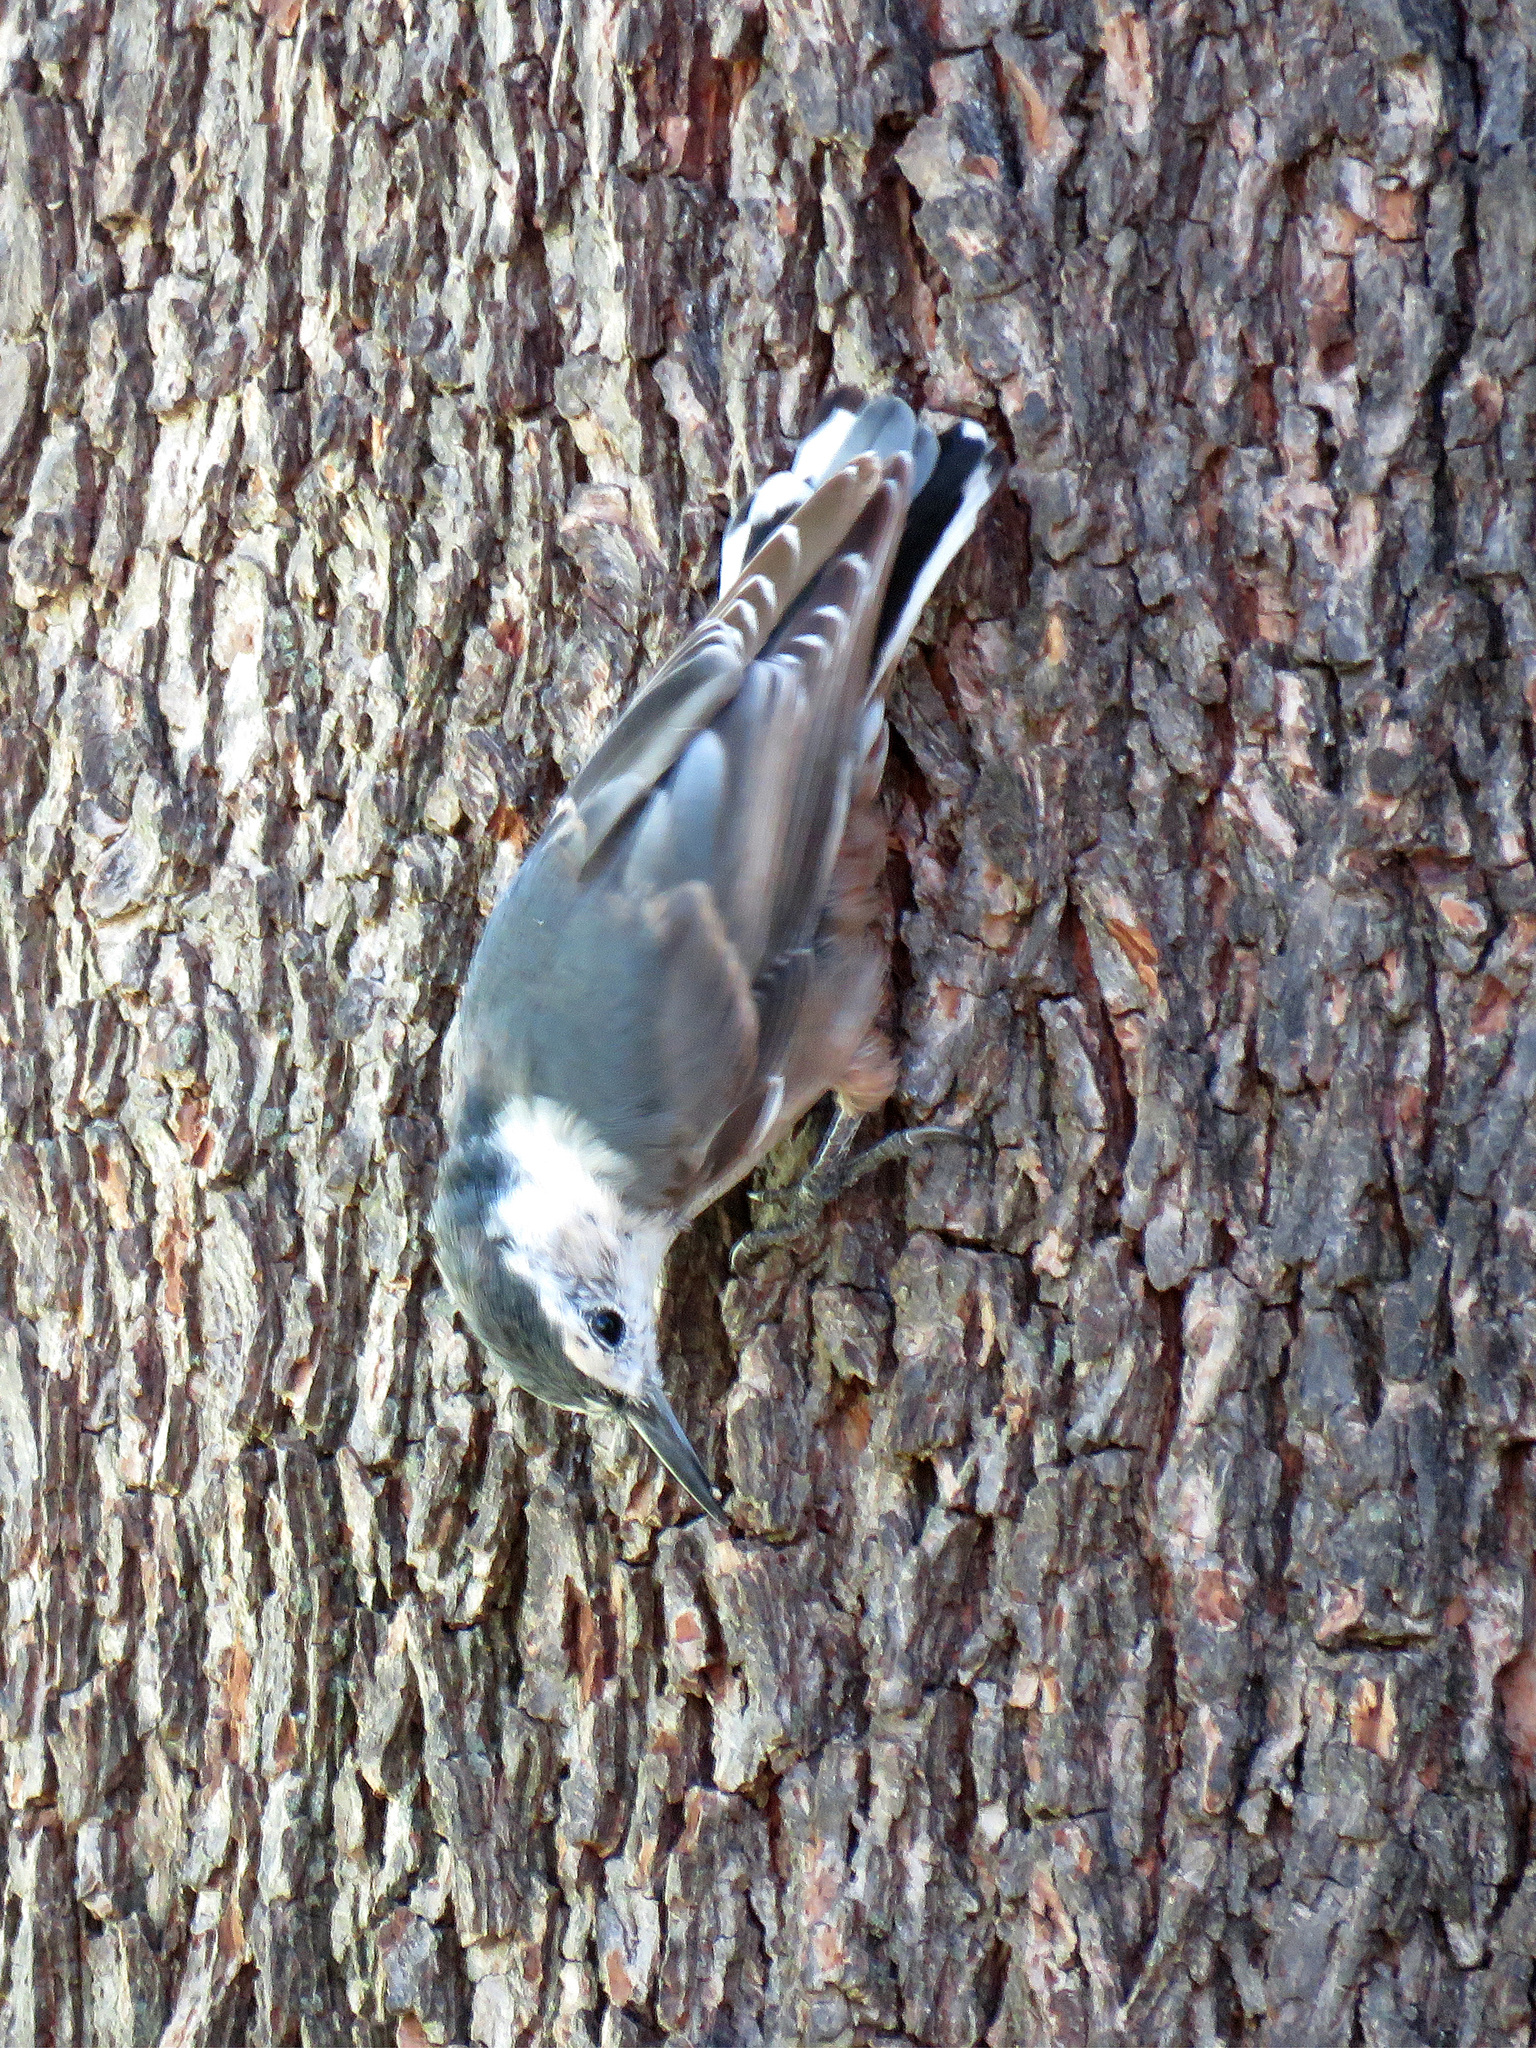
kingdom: Animalia
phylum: Chordata
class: Aves
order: Passeriformes
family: Sittidae
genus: Sitta
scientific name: Sitta carolinensis
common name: White-breasted nuthatch
